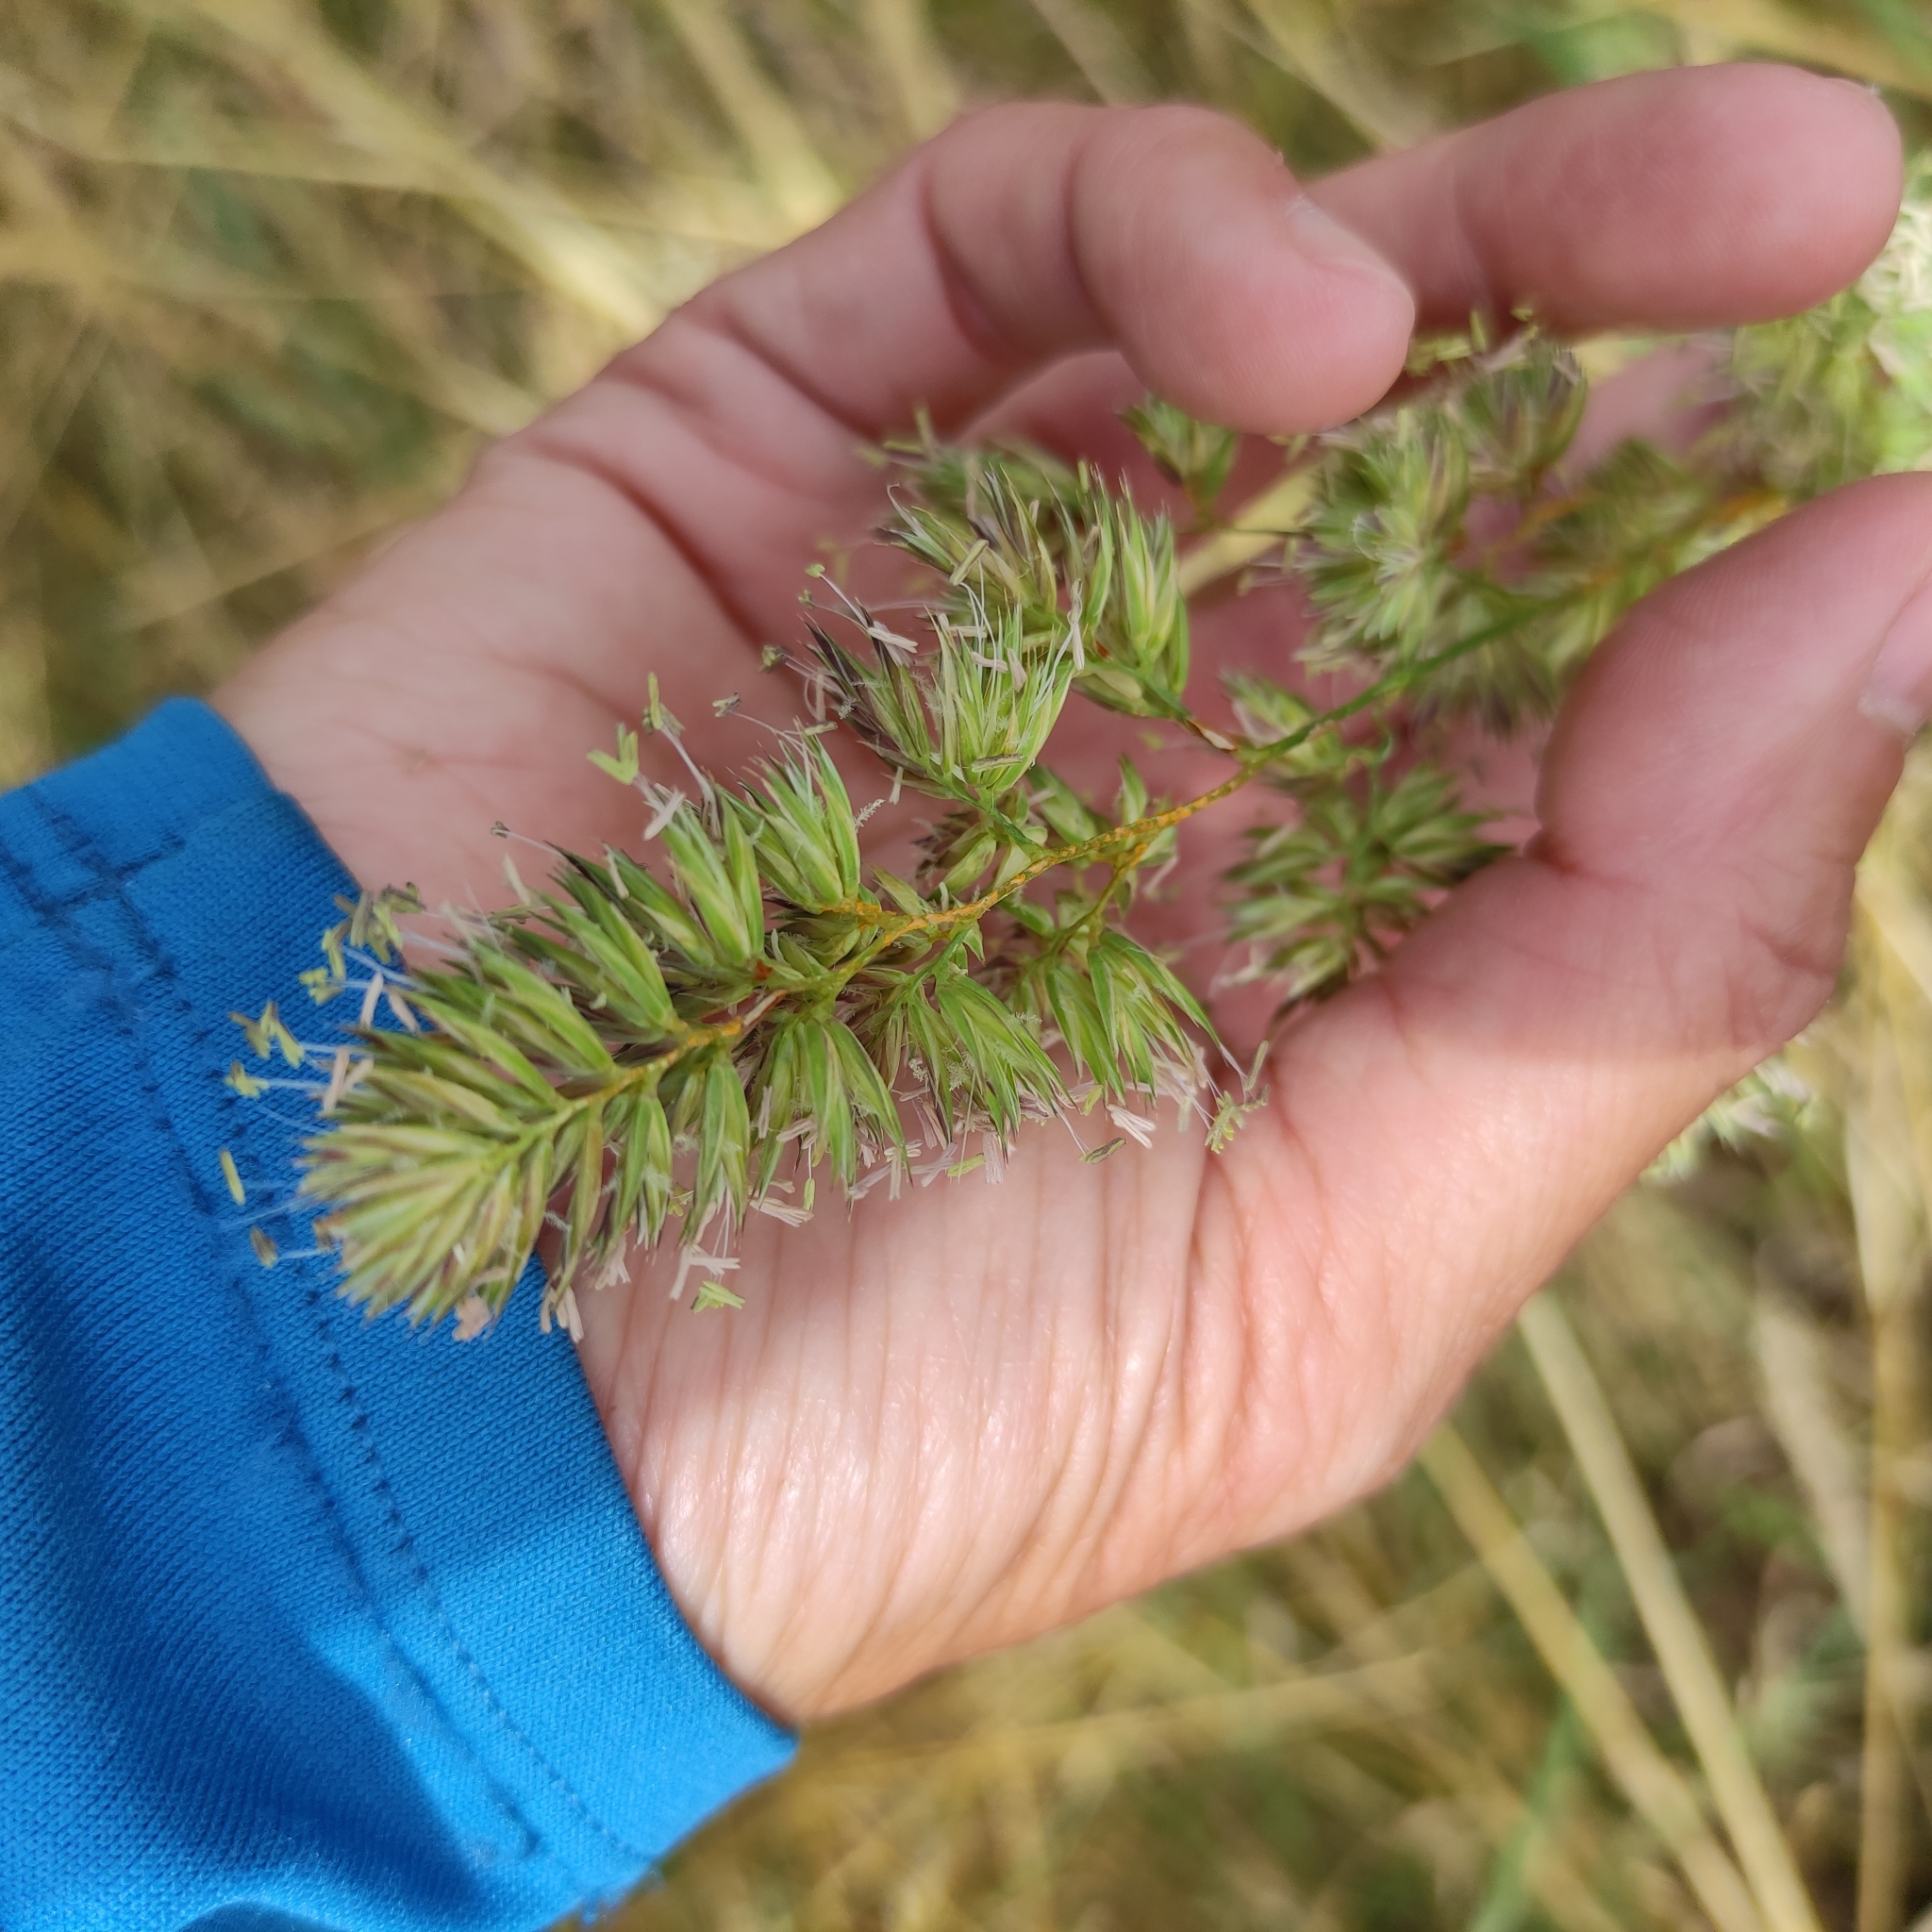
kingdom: Plantae
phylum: Tracheophyta
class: Liliopsida
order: Poales
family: Poaceae
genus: Dactylis
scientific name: Dactylis glomerata
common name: Orchardgrass
